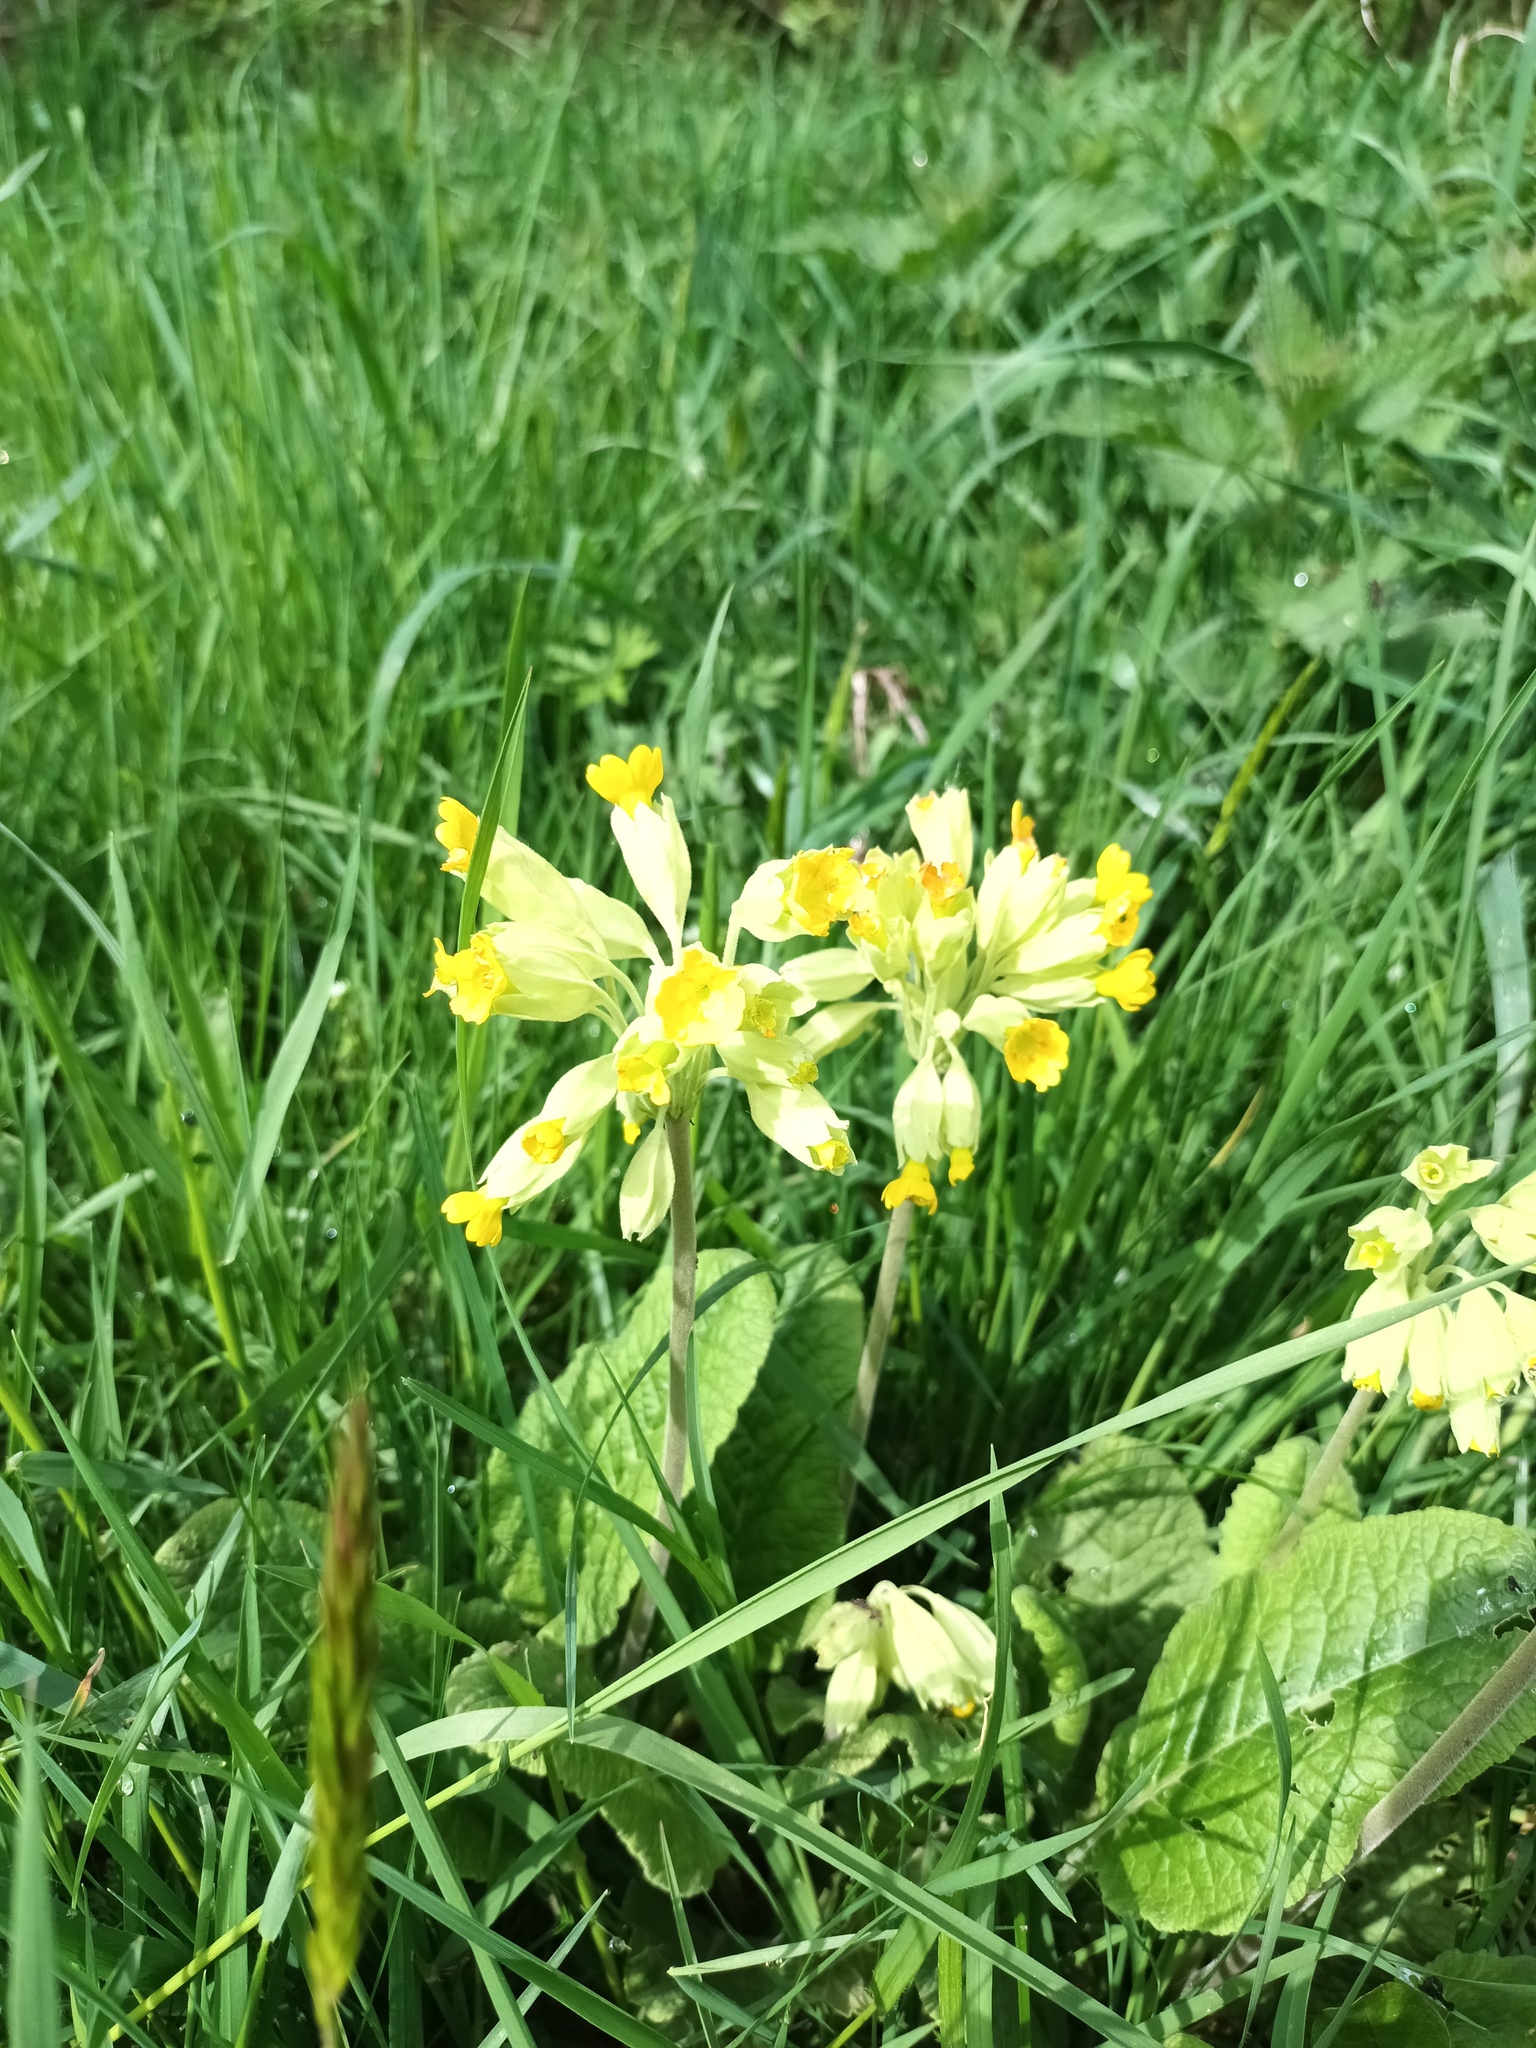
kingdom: Plantae
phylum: Tracheophyta
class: Magnoliopsida
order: Ericales
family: Primulaceae
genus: Primula
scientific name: Primula veris
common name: Cowslip
